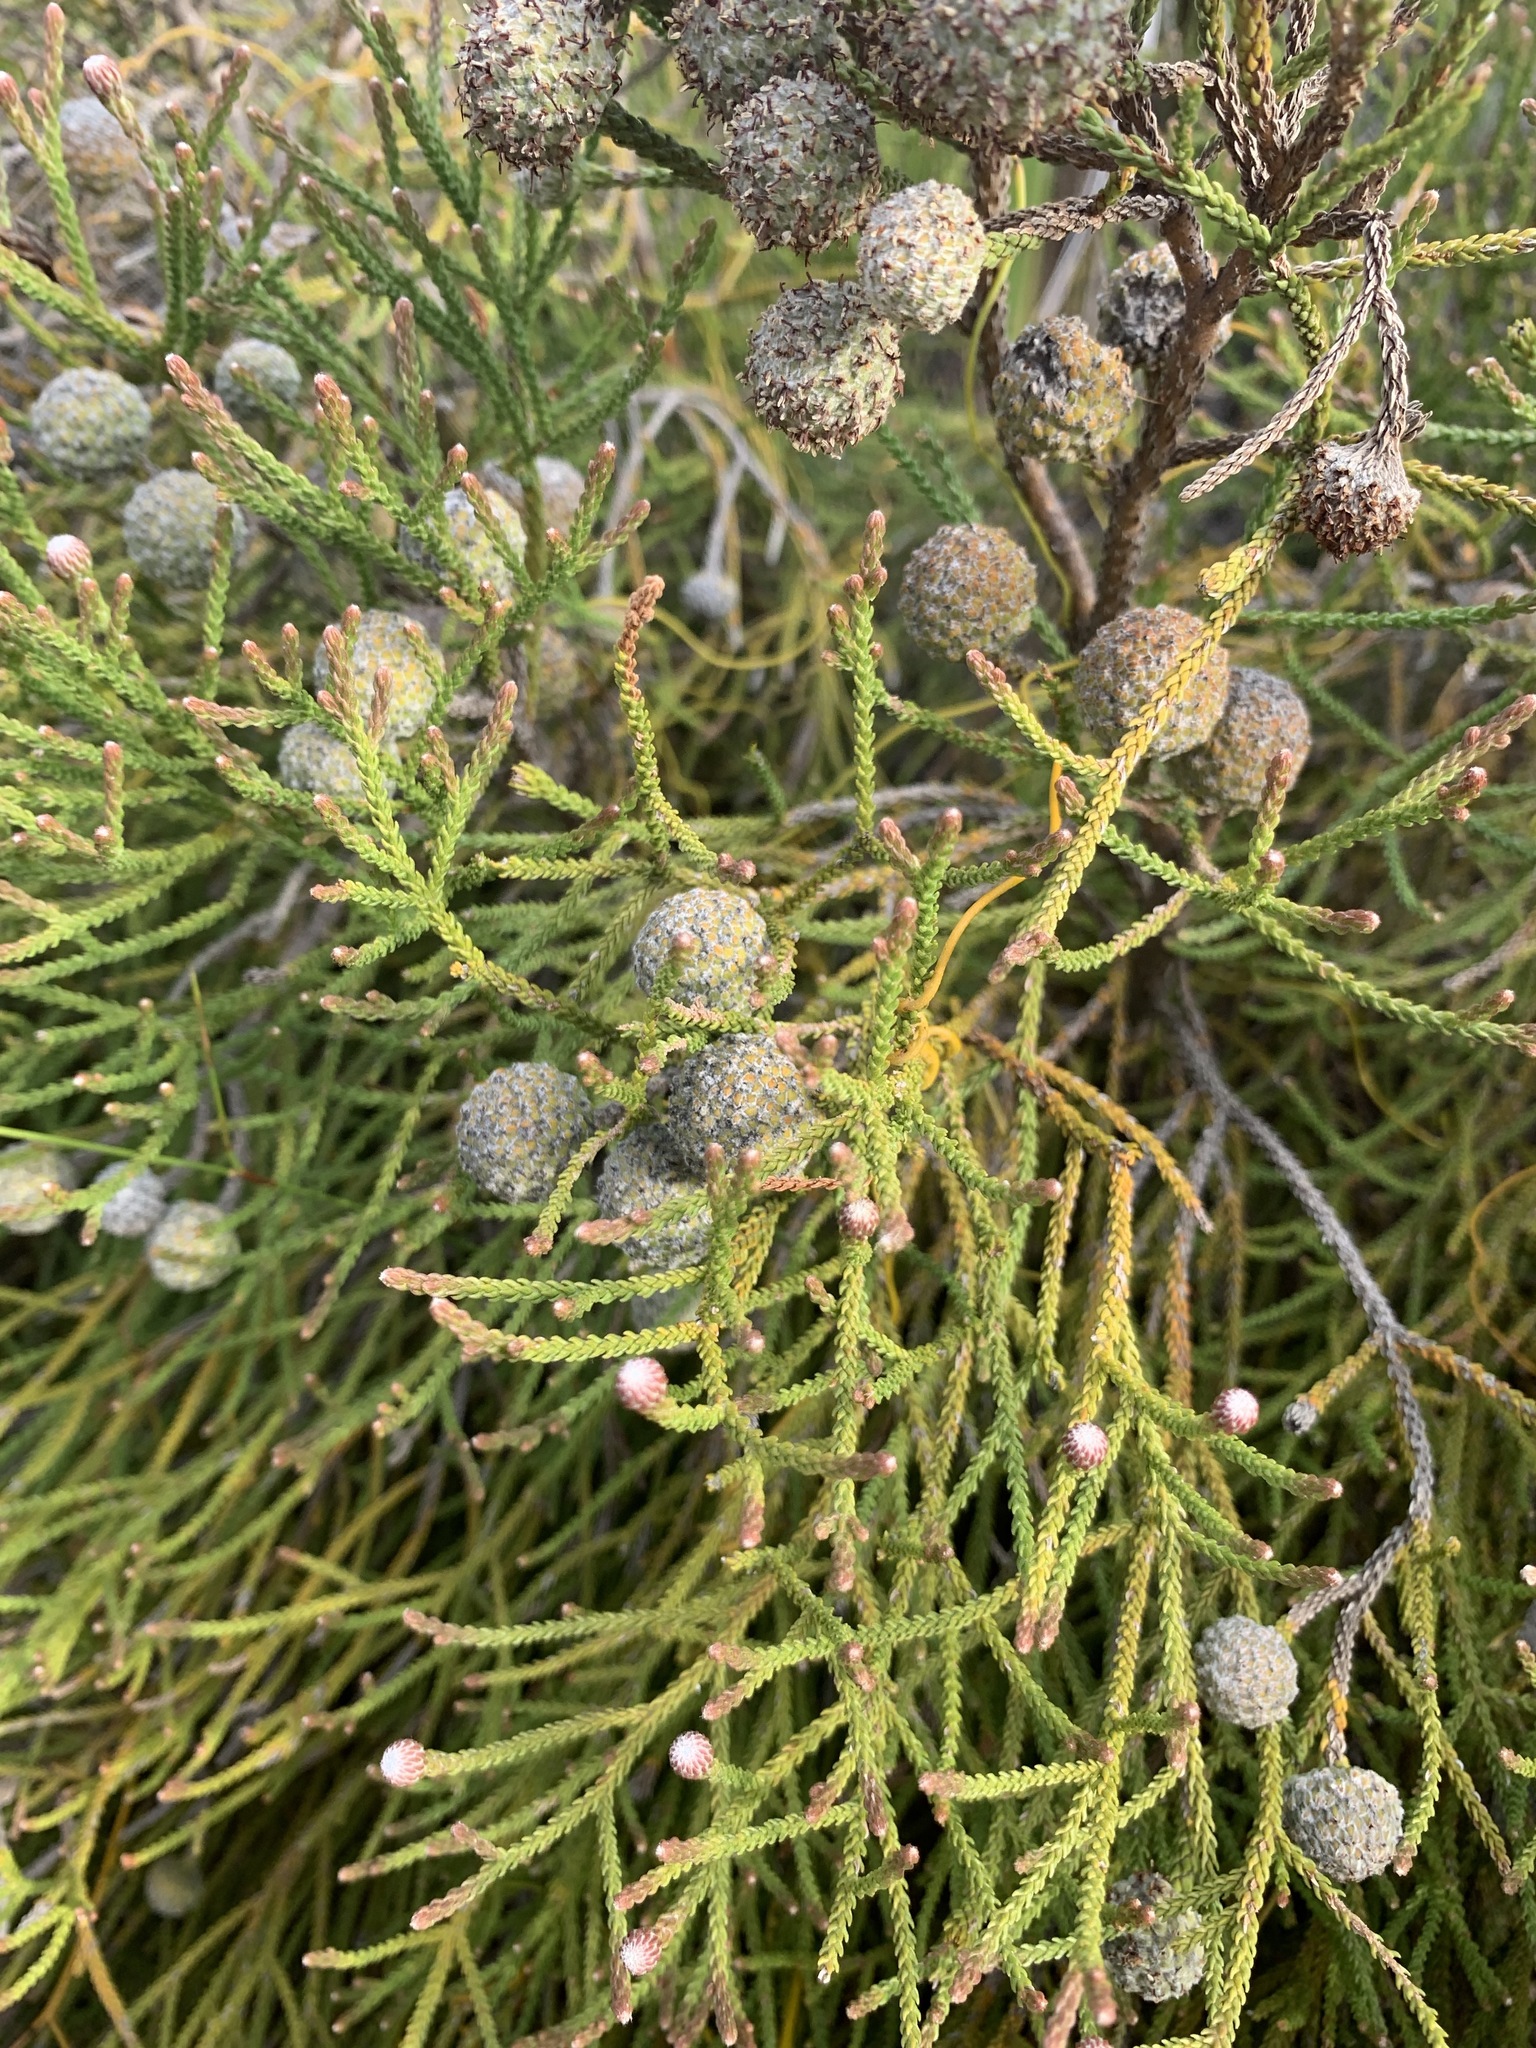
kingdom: Plantae
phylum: Tracheophyta
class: Magnoliopsida
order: Bruniales
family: Bruniaceae
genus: Brunia
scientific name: Brunia noduliflora
